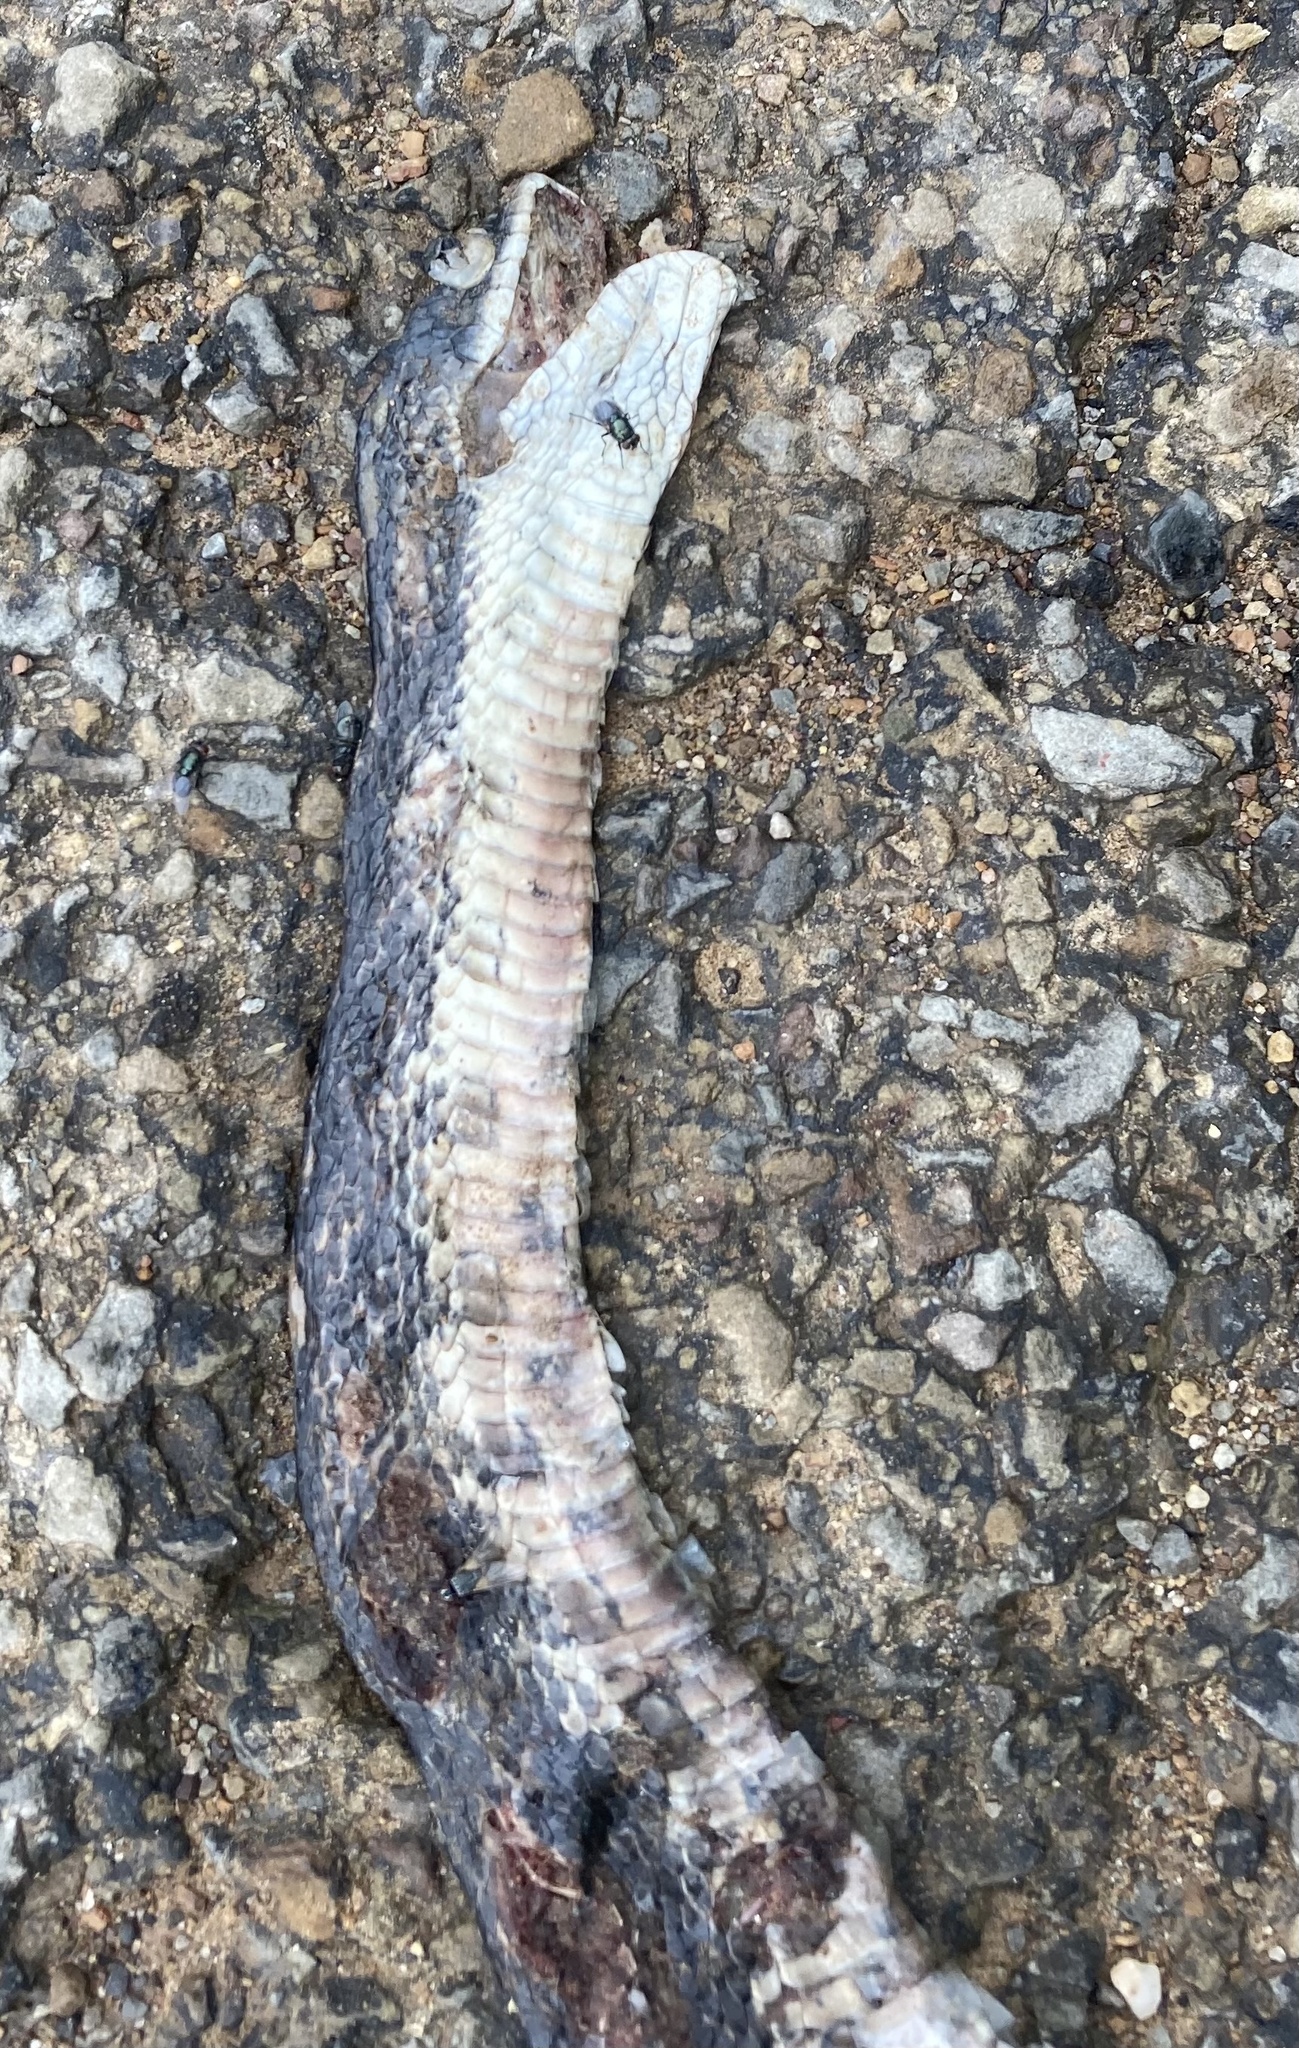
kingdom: Animalia
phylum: Chordata
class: Squamata
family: Colubridae
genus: Pantherophis
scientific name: Pantherophis obsoletus
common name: Black rat snake
